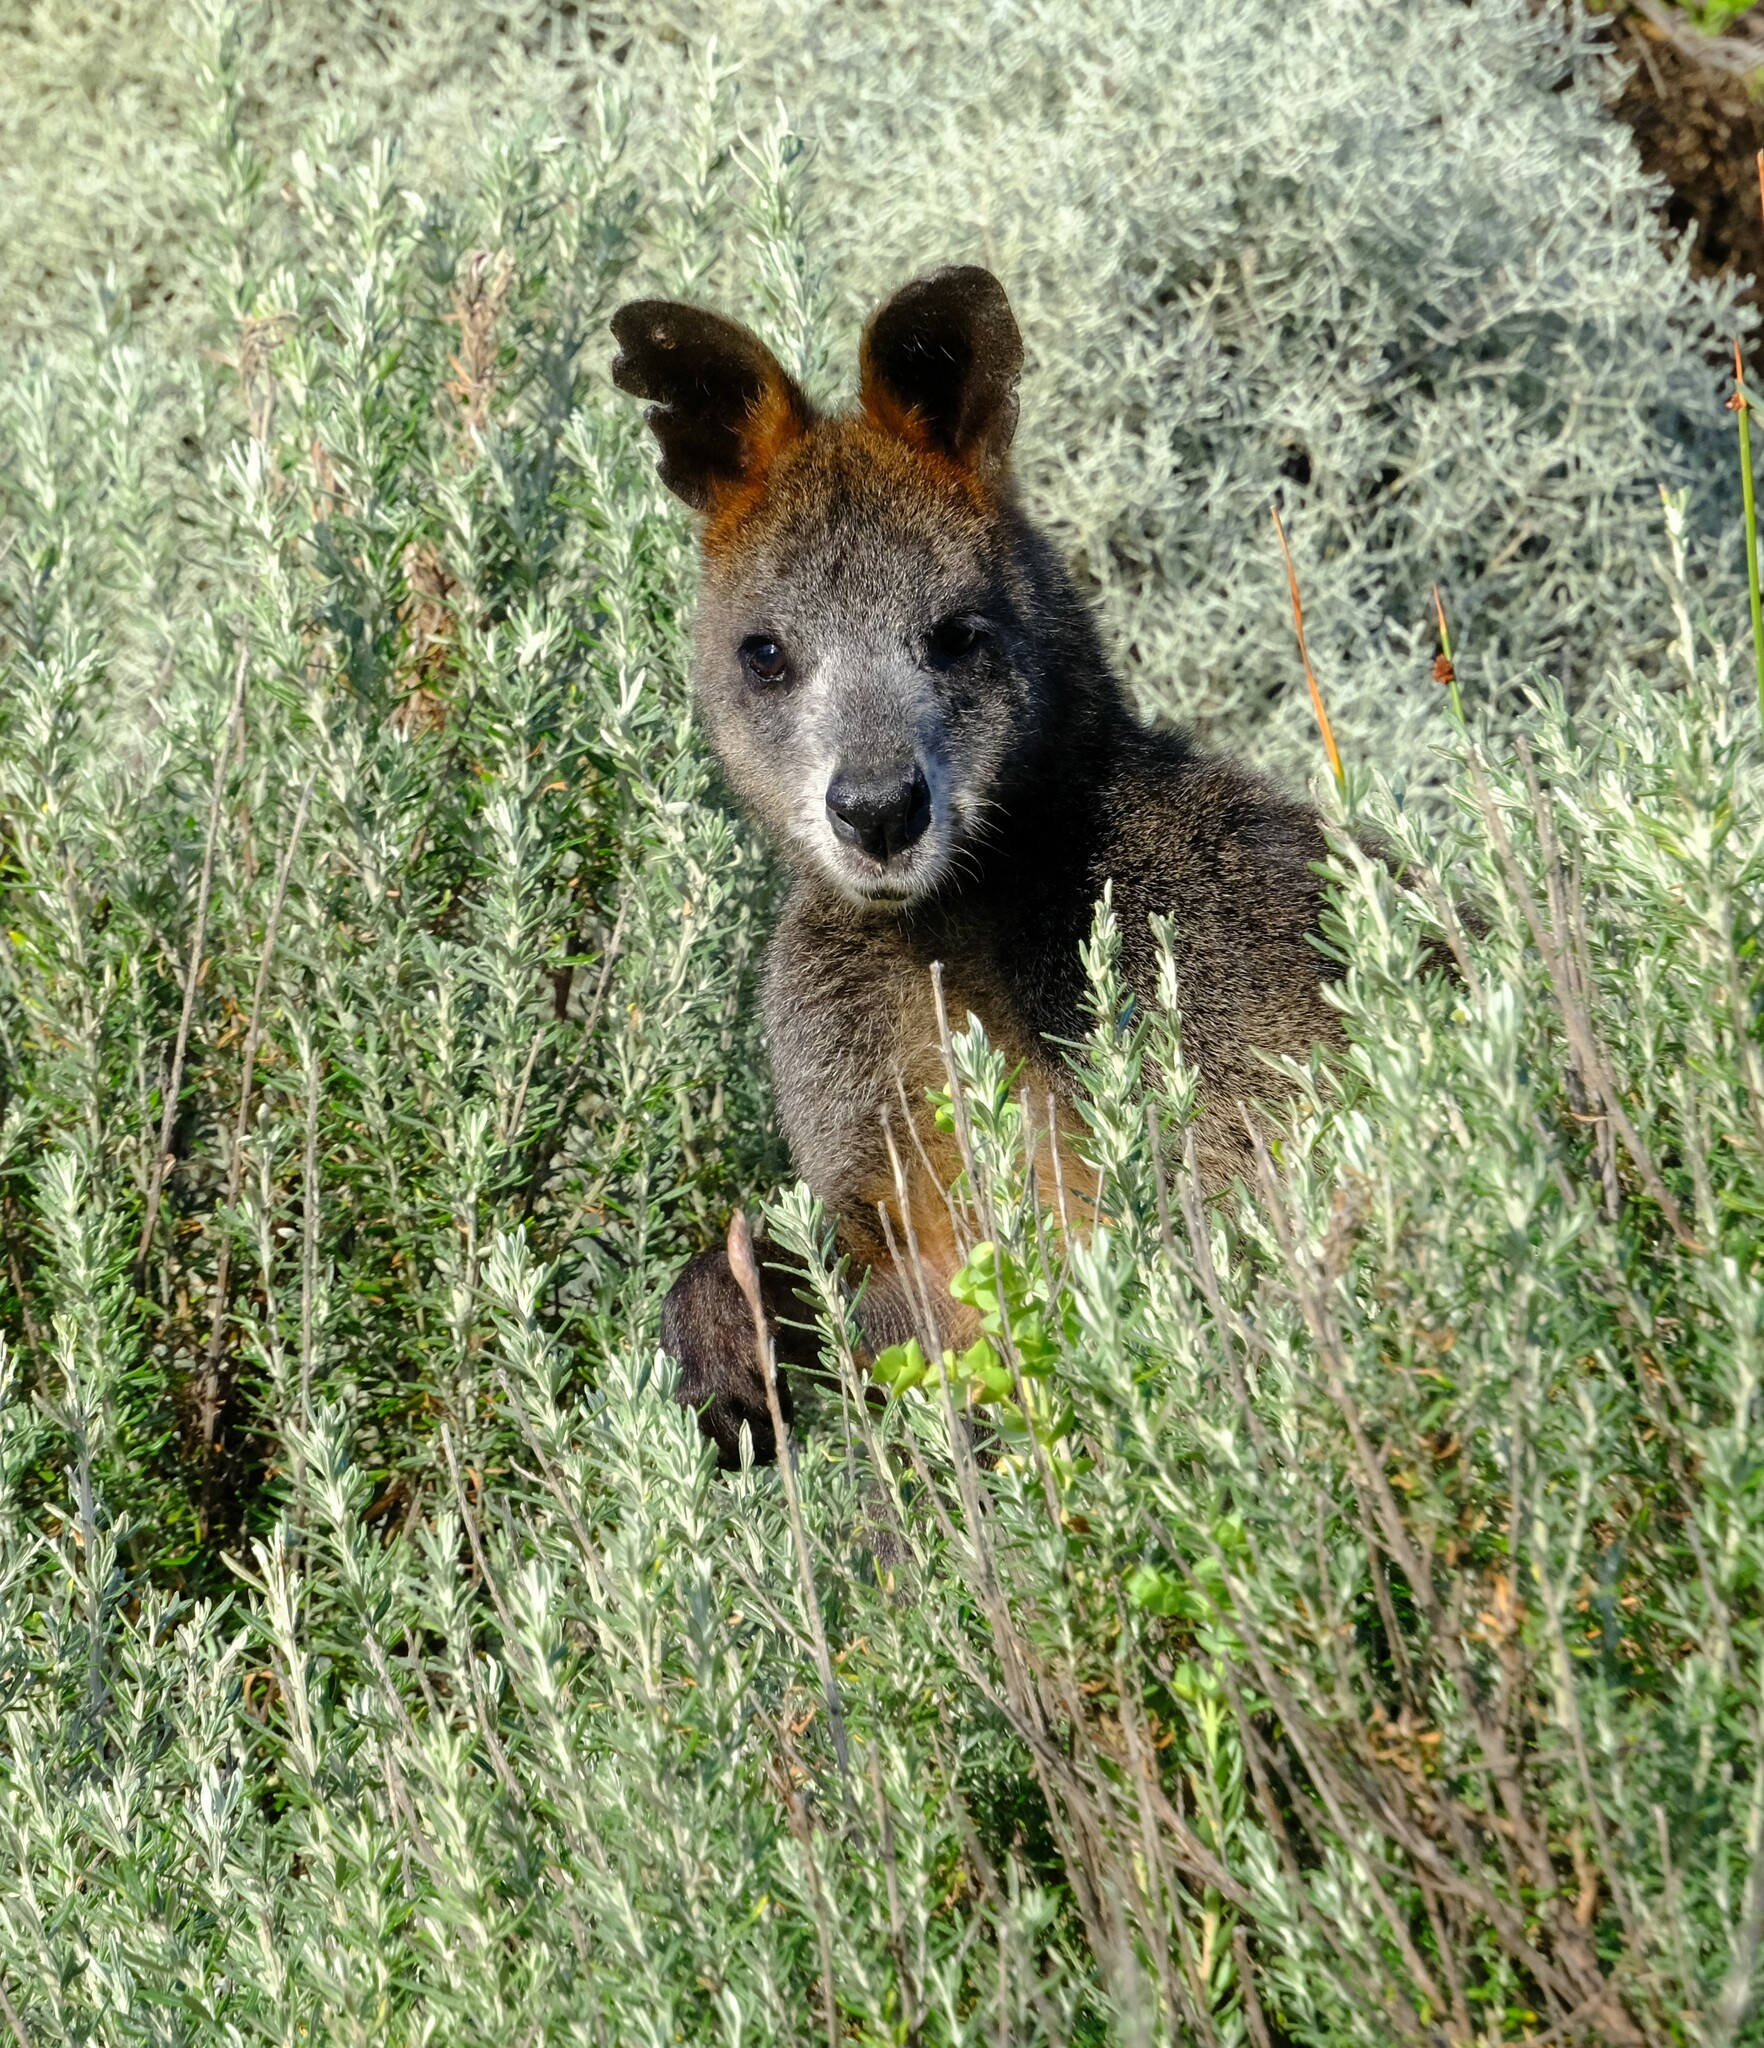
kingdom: Animalia
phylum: Chordata
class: Mammalia
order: Diprotodontia
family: Macropodidae
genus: Wallabia
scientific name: Wallabia bicolor
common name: Swamp wallaby
